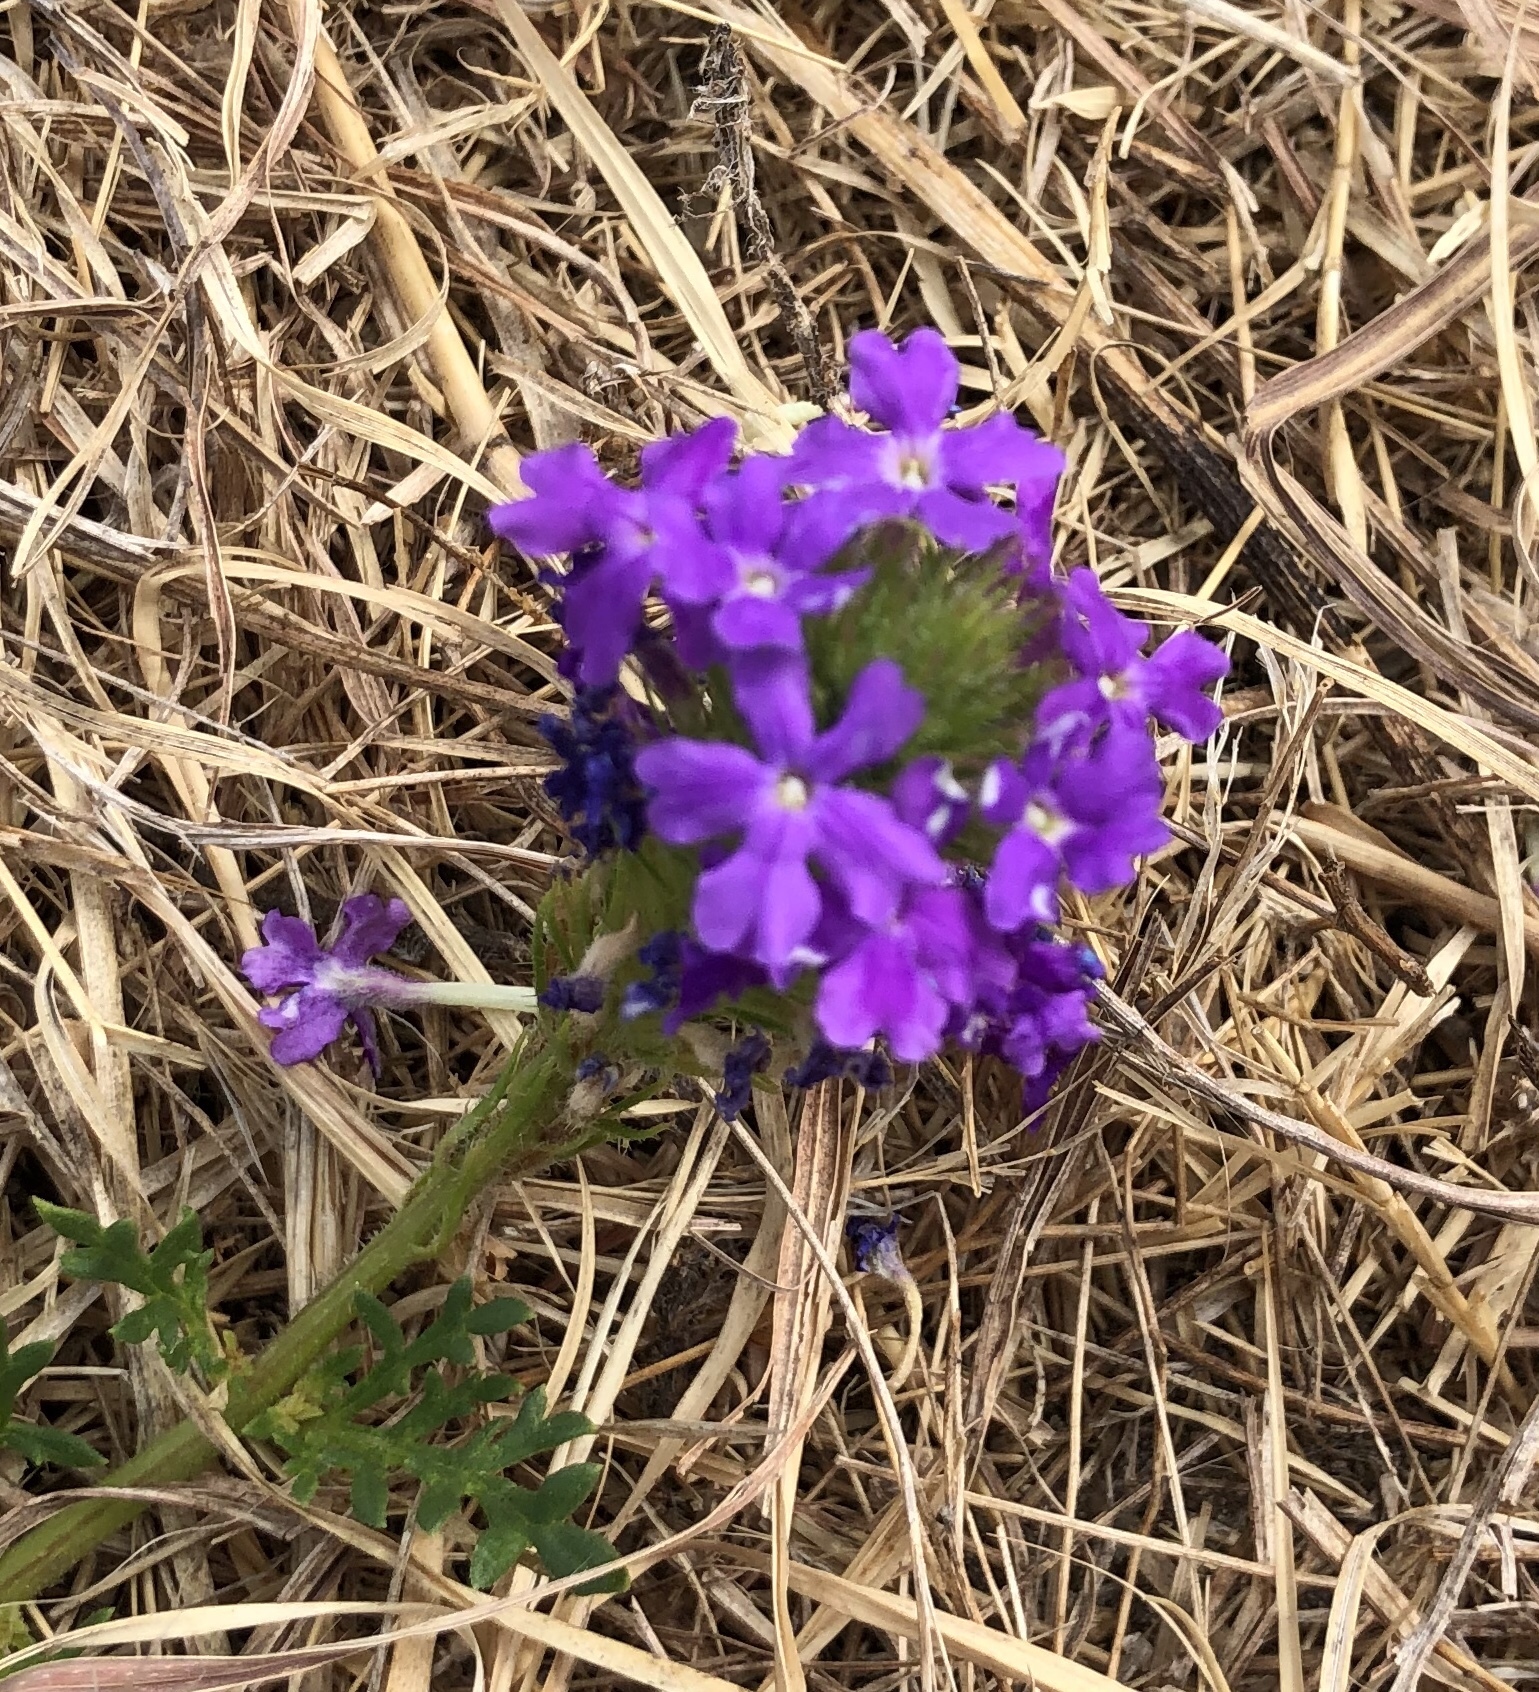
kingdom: Plantae
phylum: Tracheophyta
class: Magnoliopsida
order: Lamiales
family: Verbenaceae
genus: Verbena
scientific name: Verbena bipinnatifida
